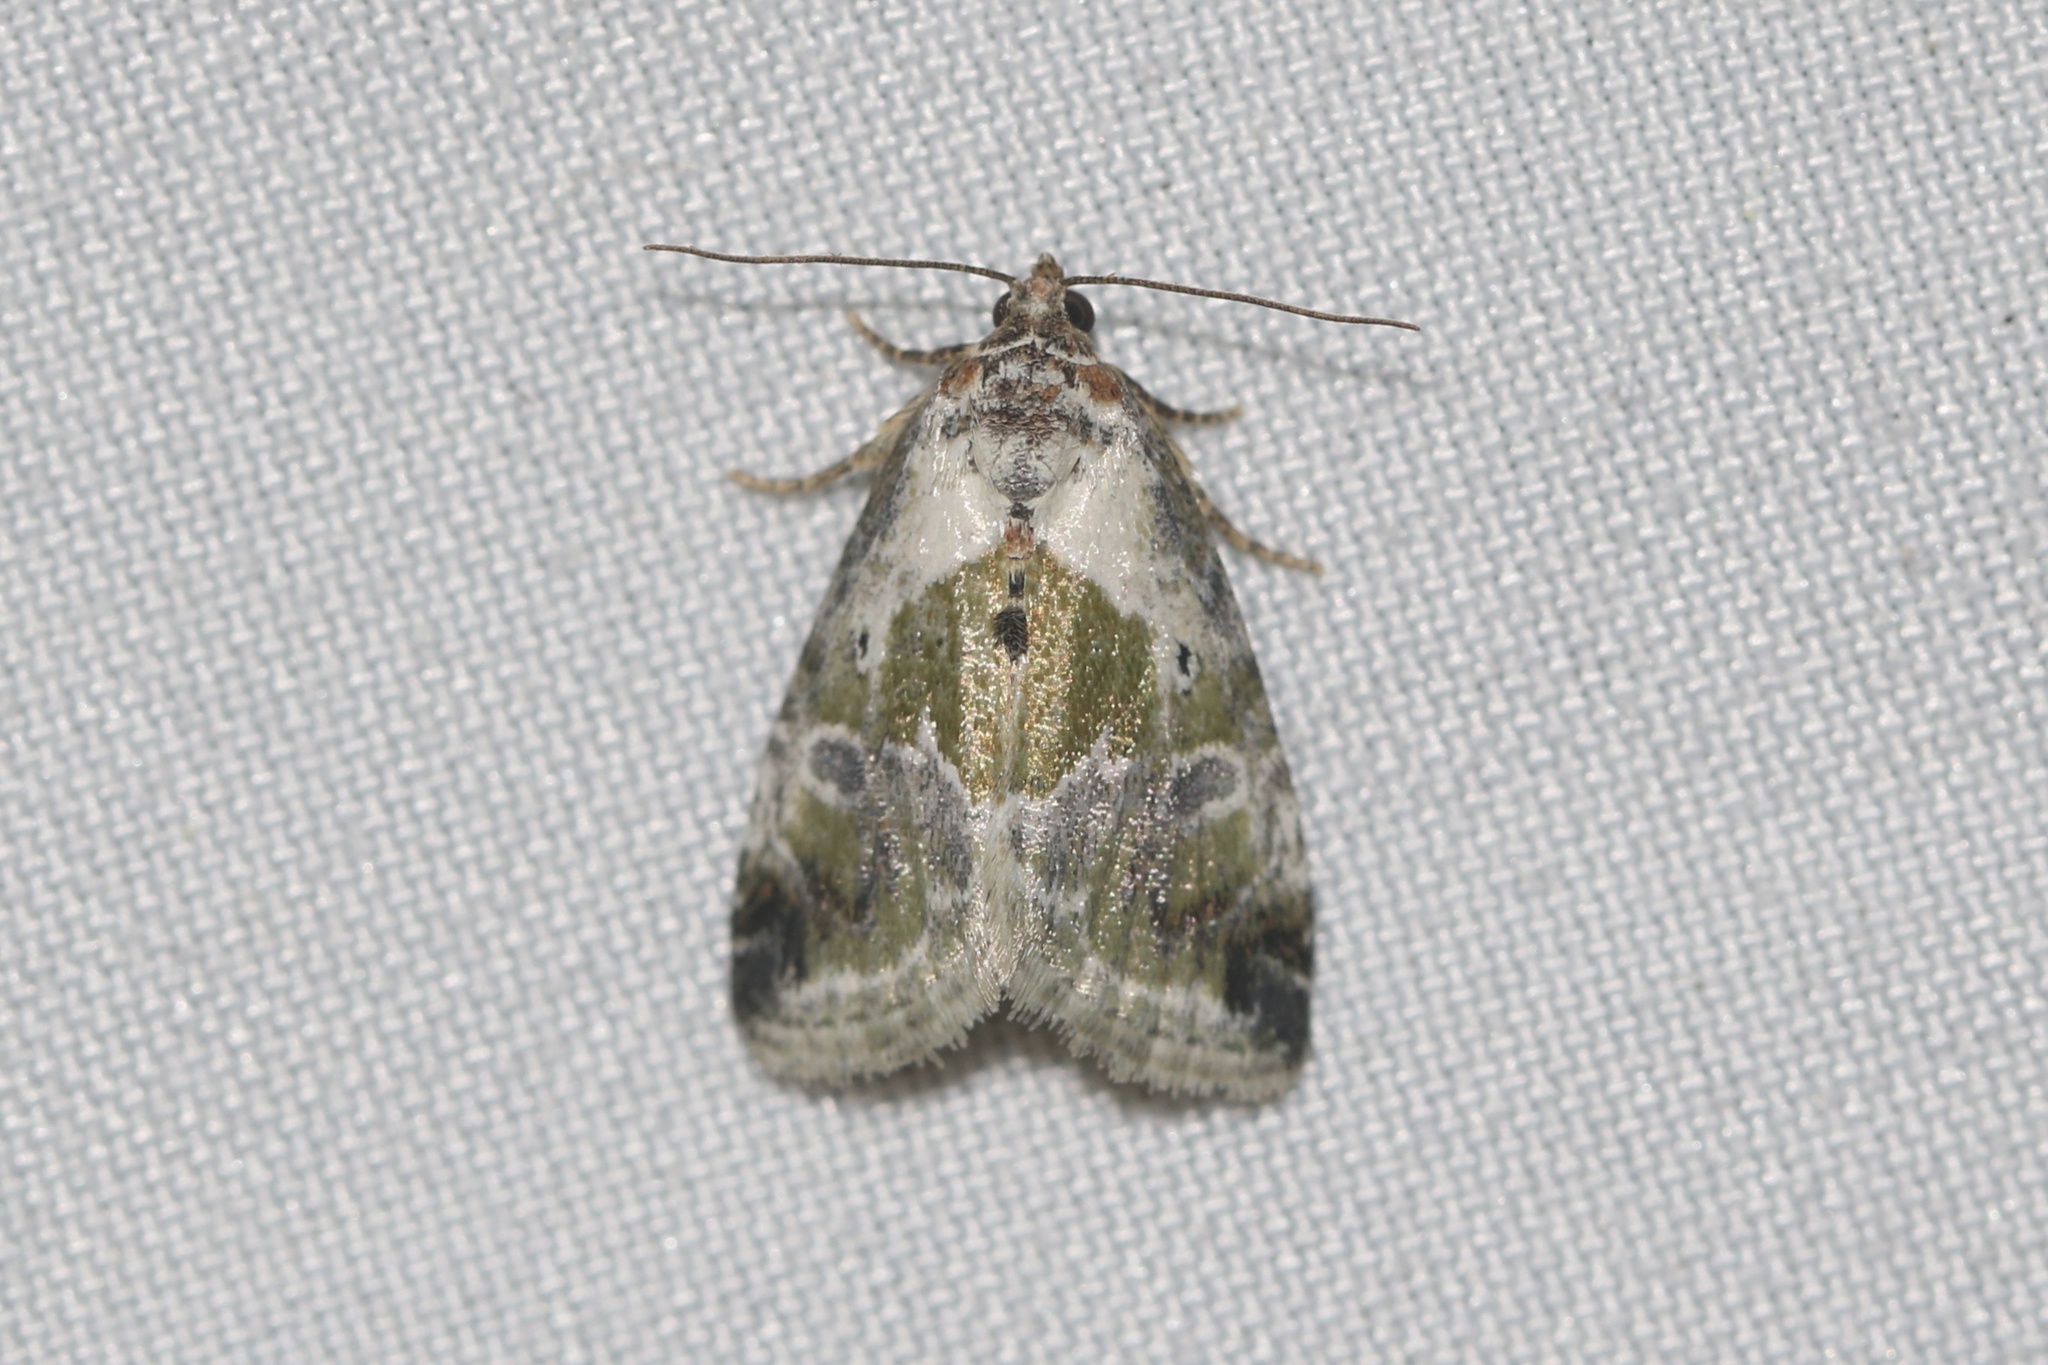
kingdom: Animalia
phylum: Arthropoda
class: Insecta
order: Lepidoptera
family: Noctuidae
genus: Maliattha
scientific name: Maliattha synochitis
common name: Black-dotted glyph
